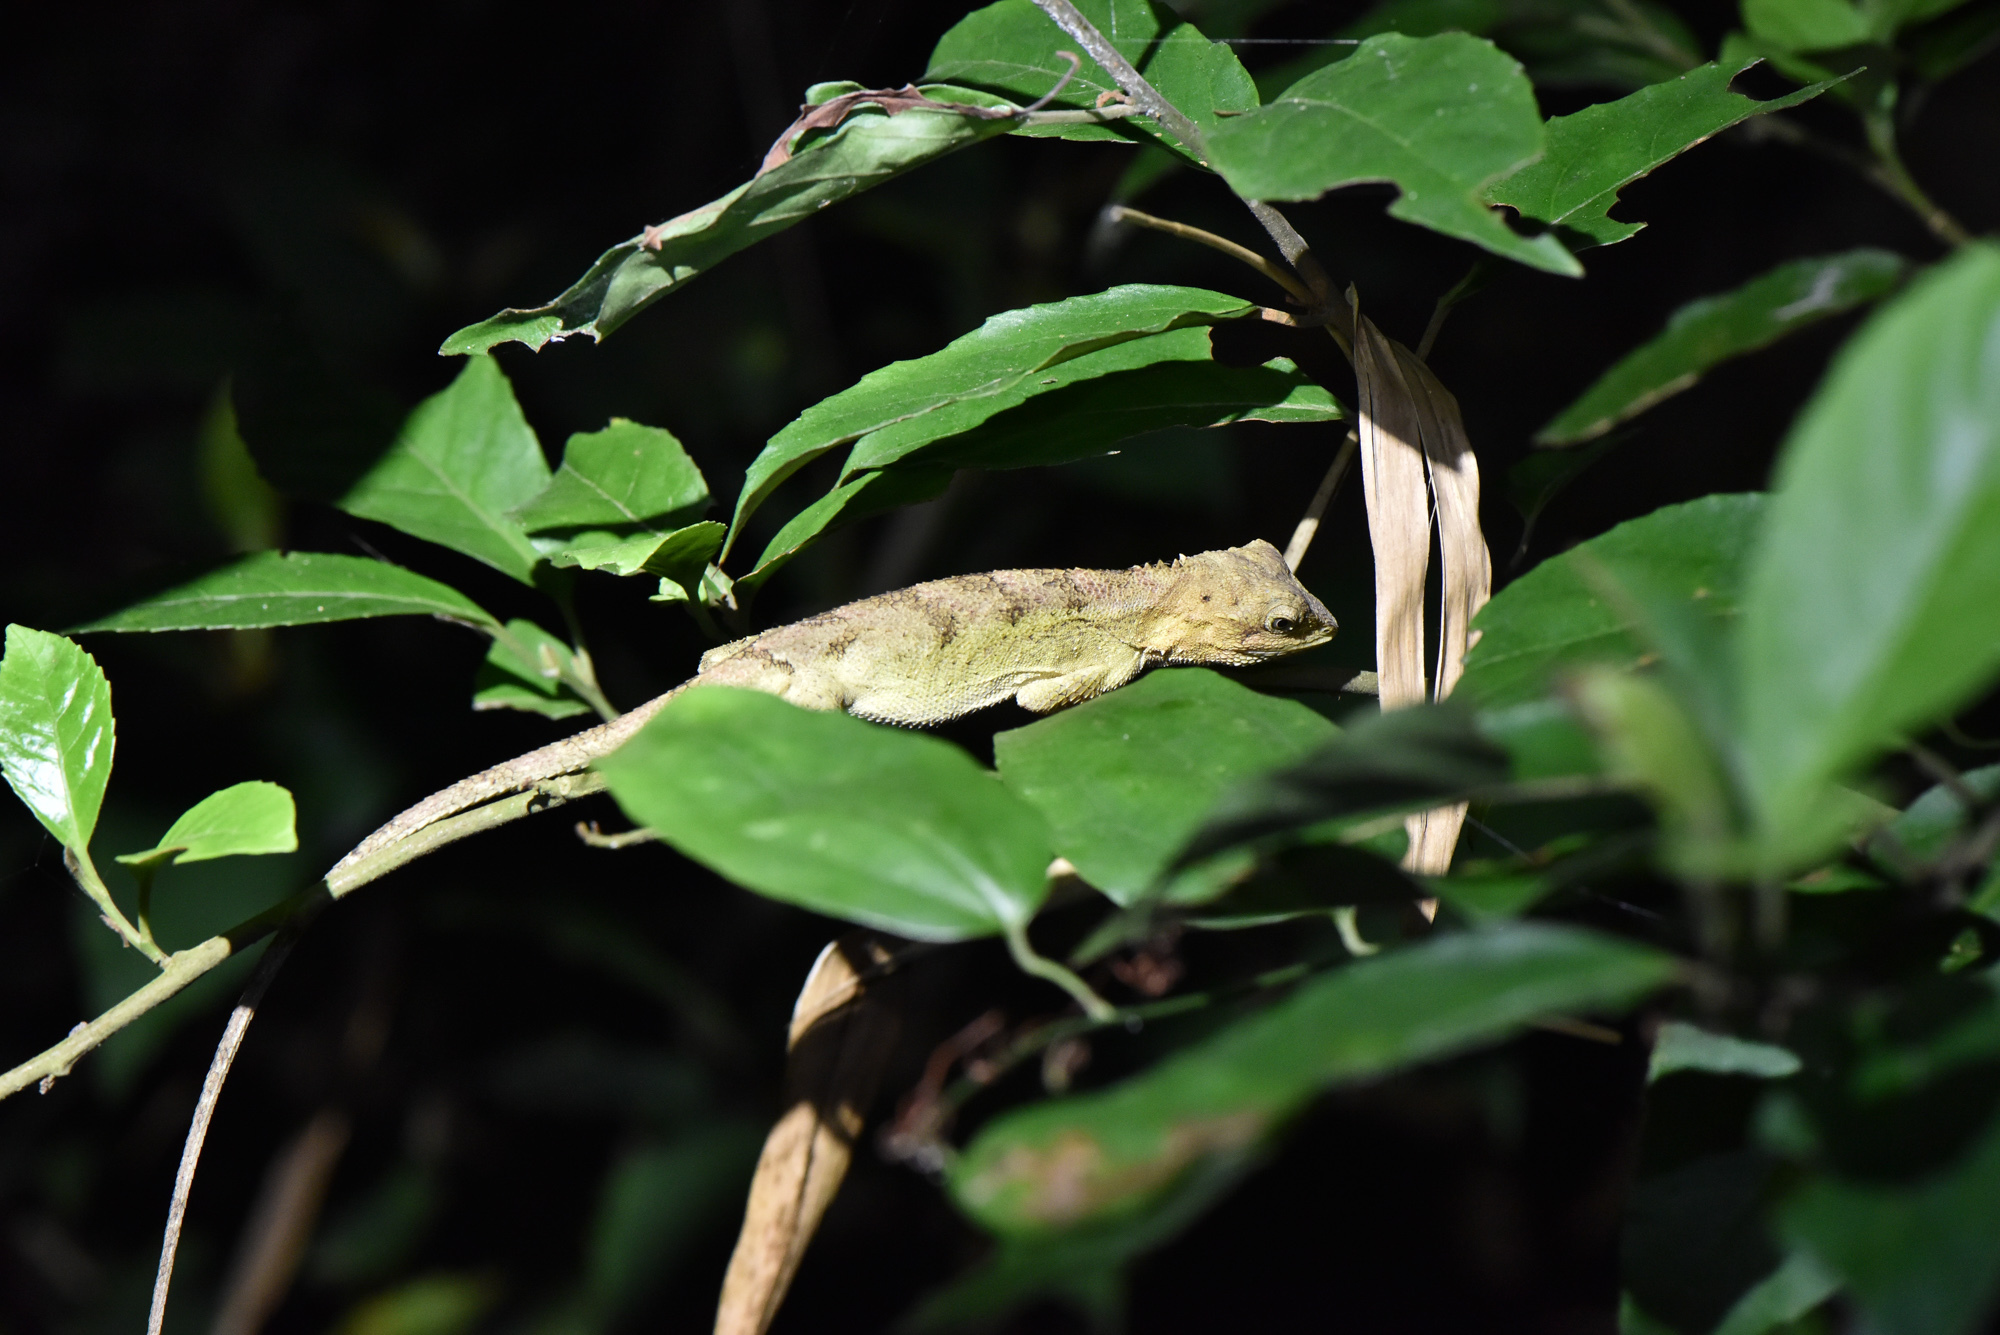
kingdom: Animalia
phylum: Chordata
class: Squamata
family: Agamidae
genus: Diploderma
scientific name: Diploderma swinhonis
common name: Taiwan japalure
